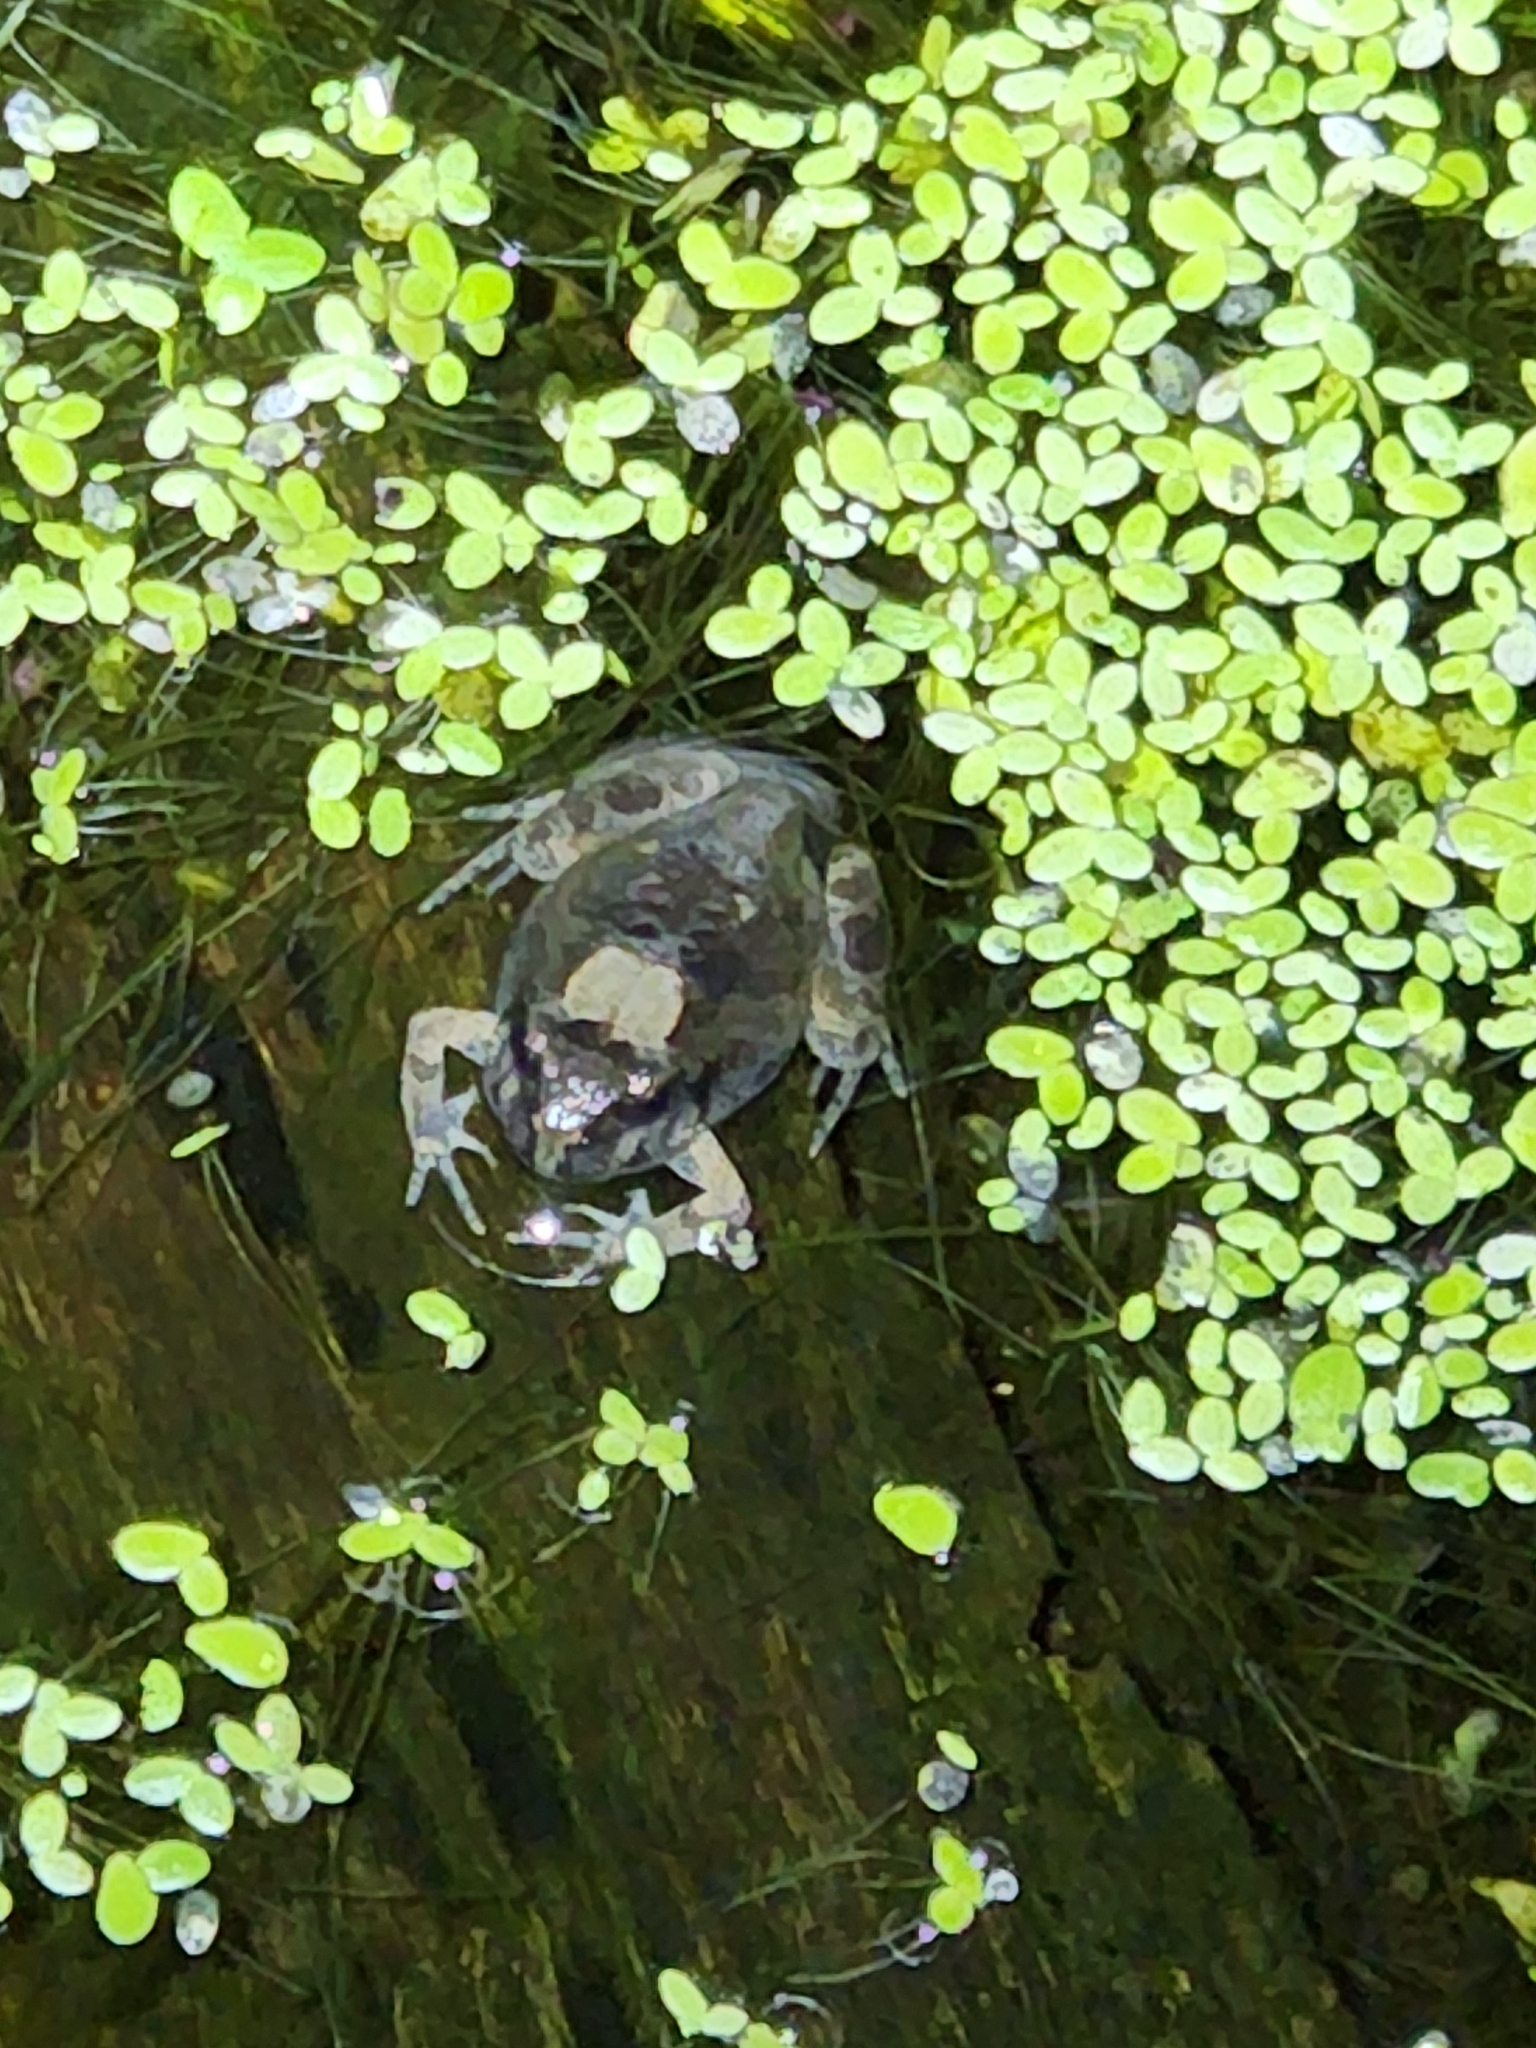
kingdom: Animalia
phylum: Chordata
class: Amphibia
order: Anura
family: Limnodynastidae
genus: Platyplectrum
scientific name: Platyplectrum ornatum
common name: Ornate burrowing frog
